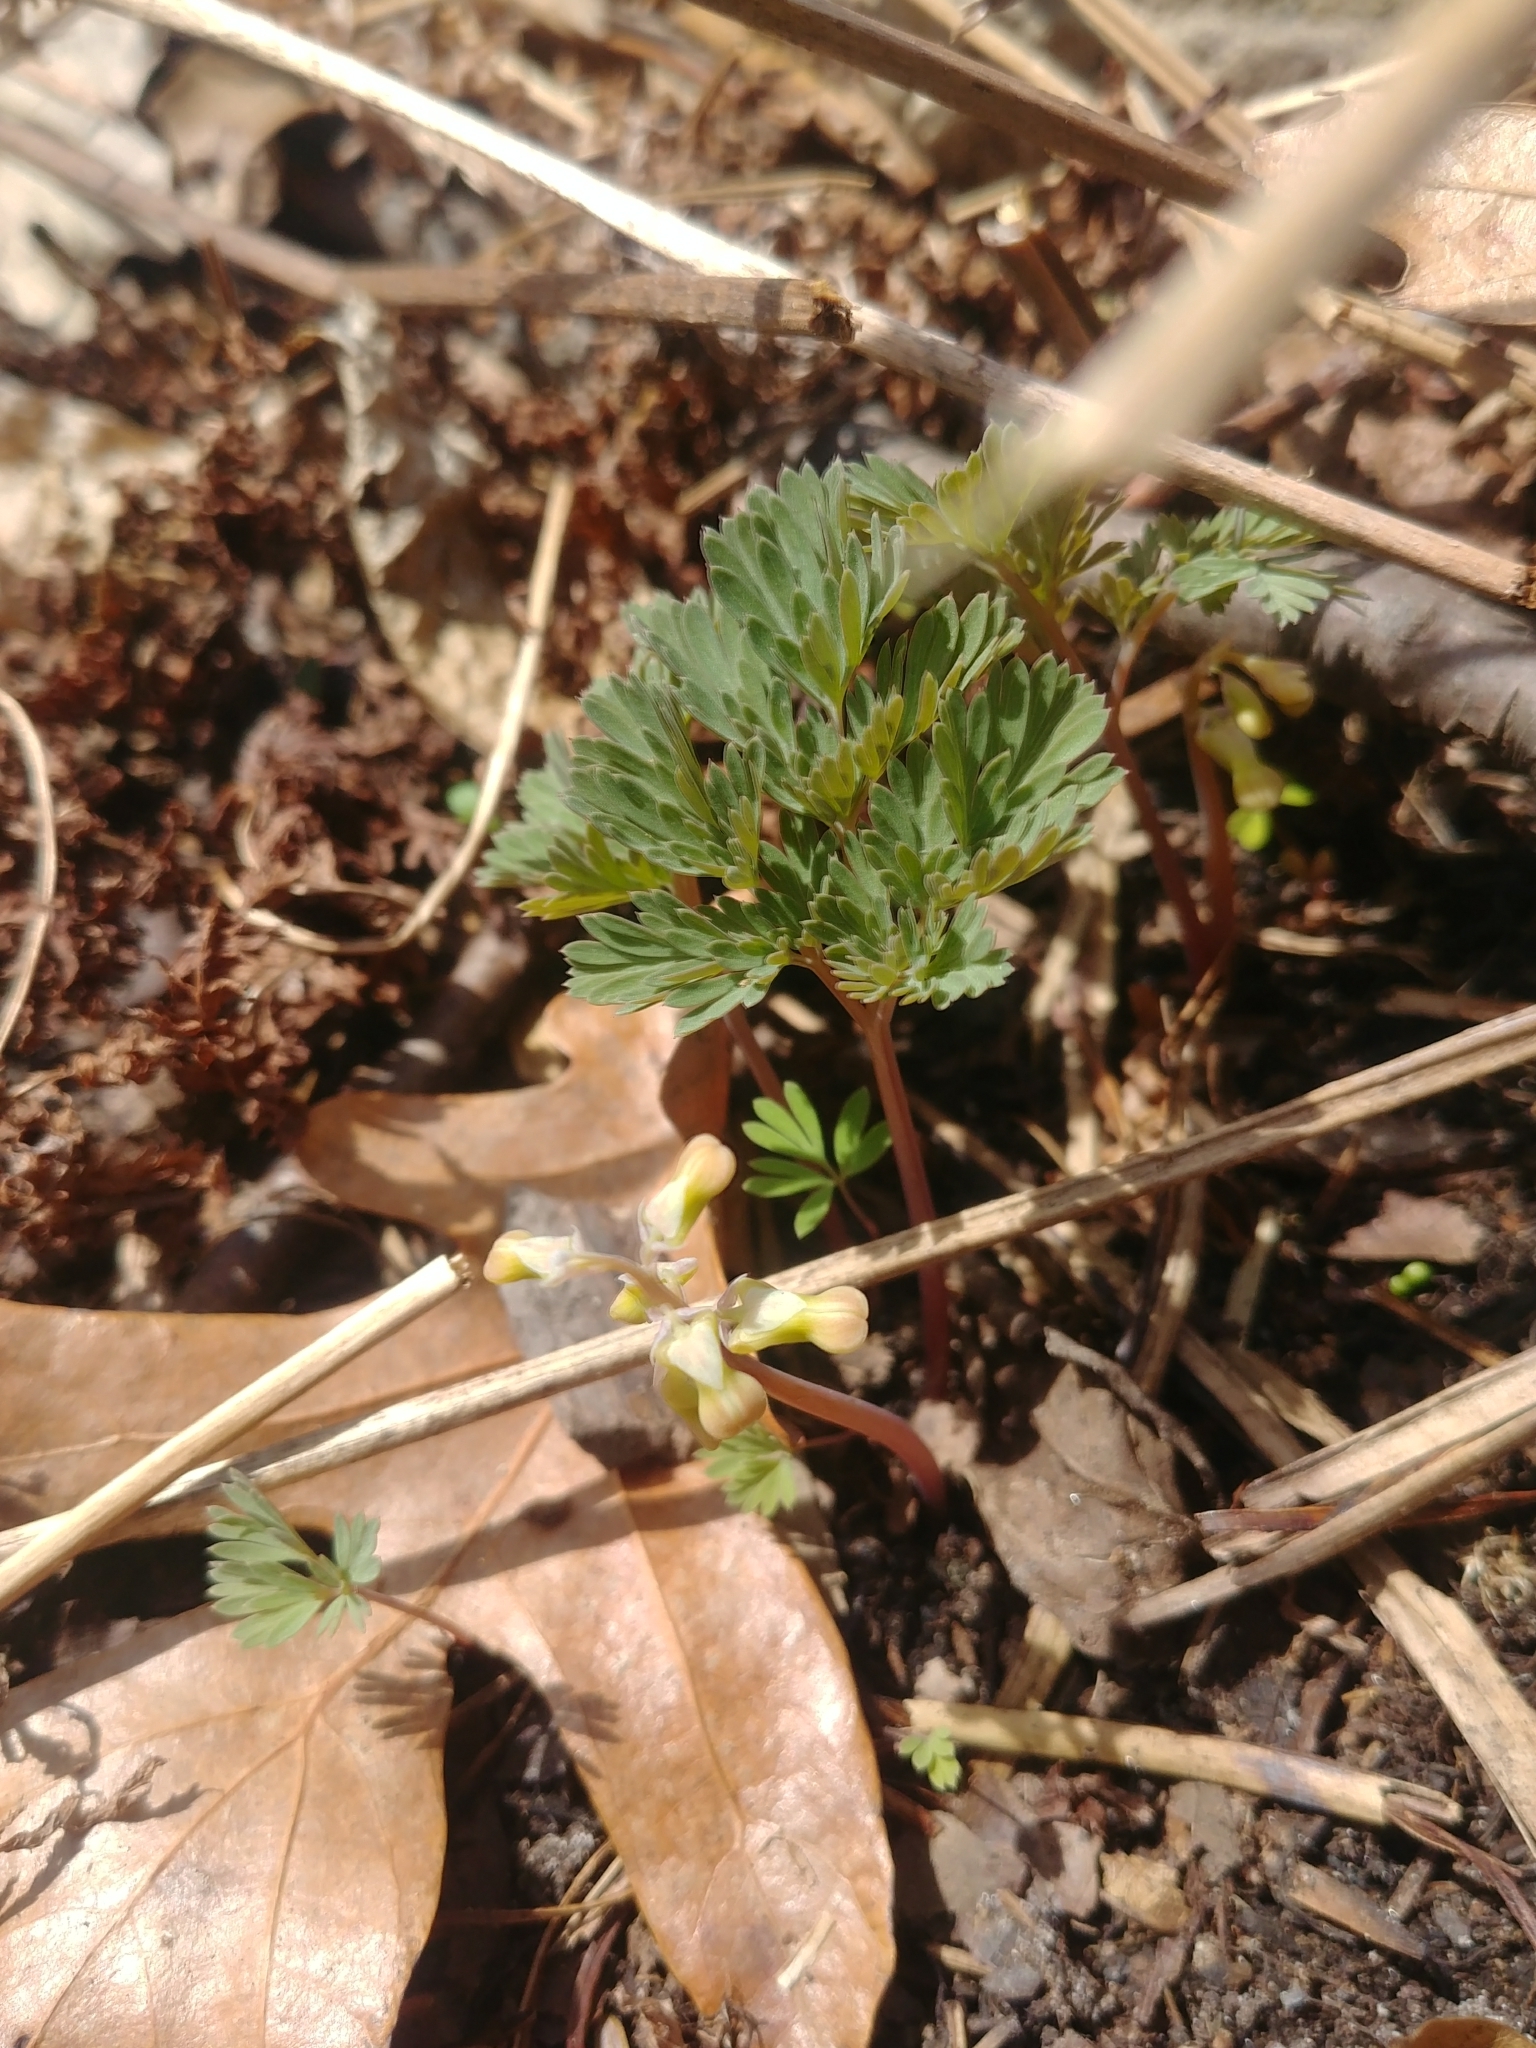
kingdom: Plantae
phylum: Tracheophyta
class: Magnoliopsida
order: Ranunculales
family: Papaveraceae
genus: Dicentra
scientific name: Dicentra cucullaria
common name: Dutchman's breeches
